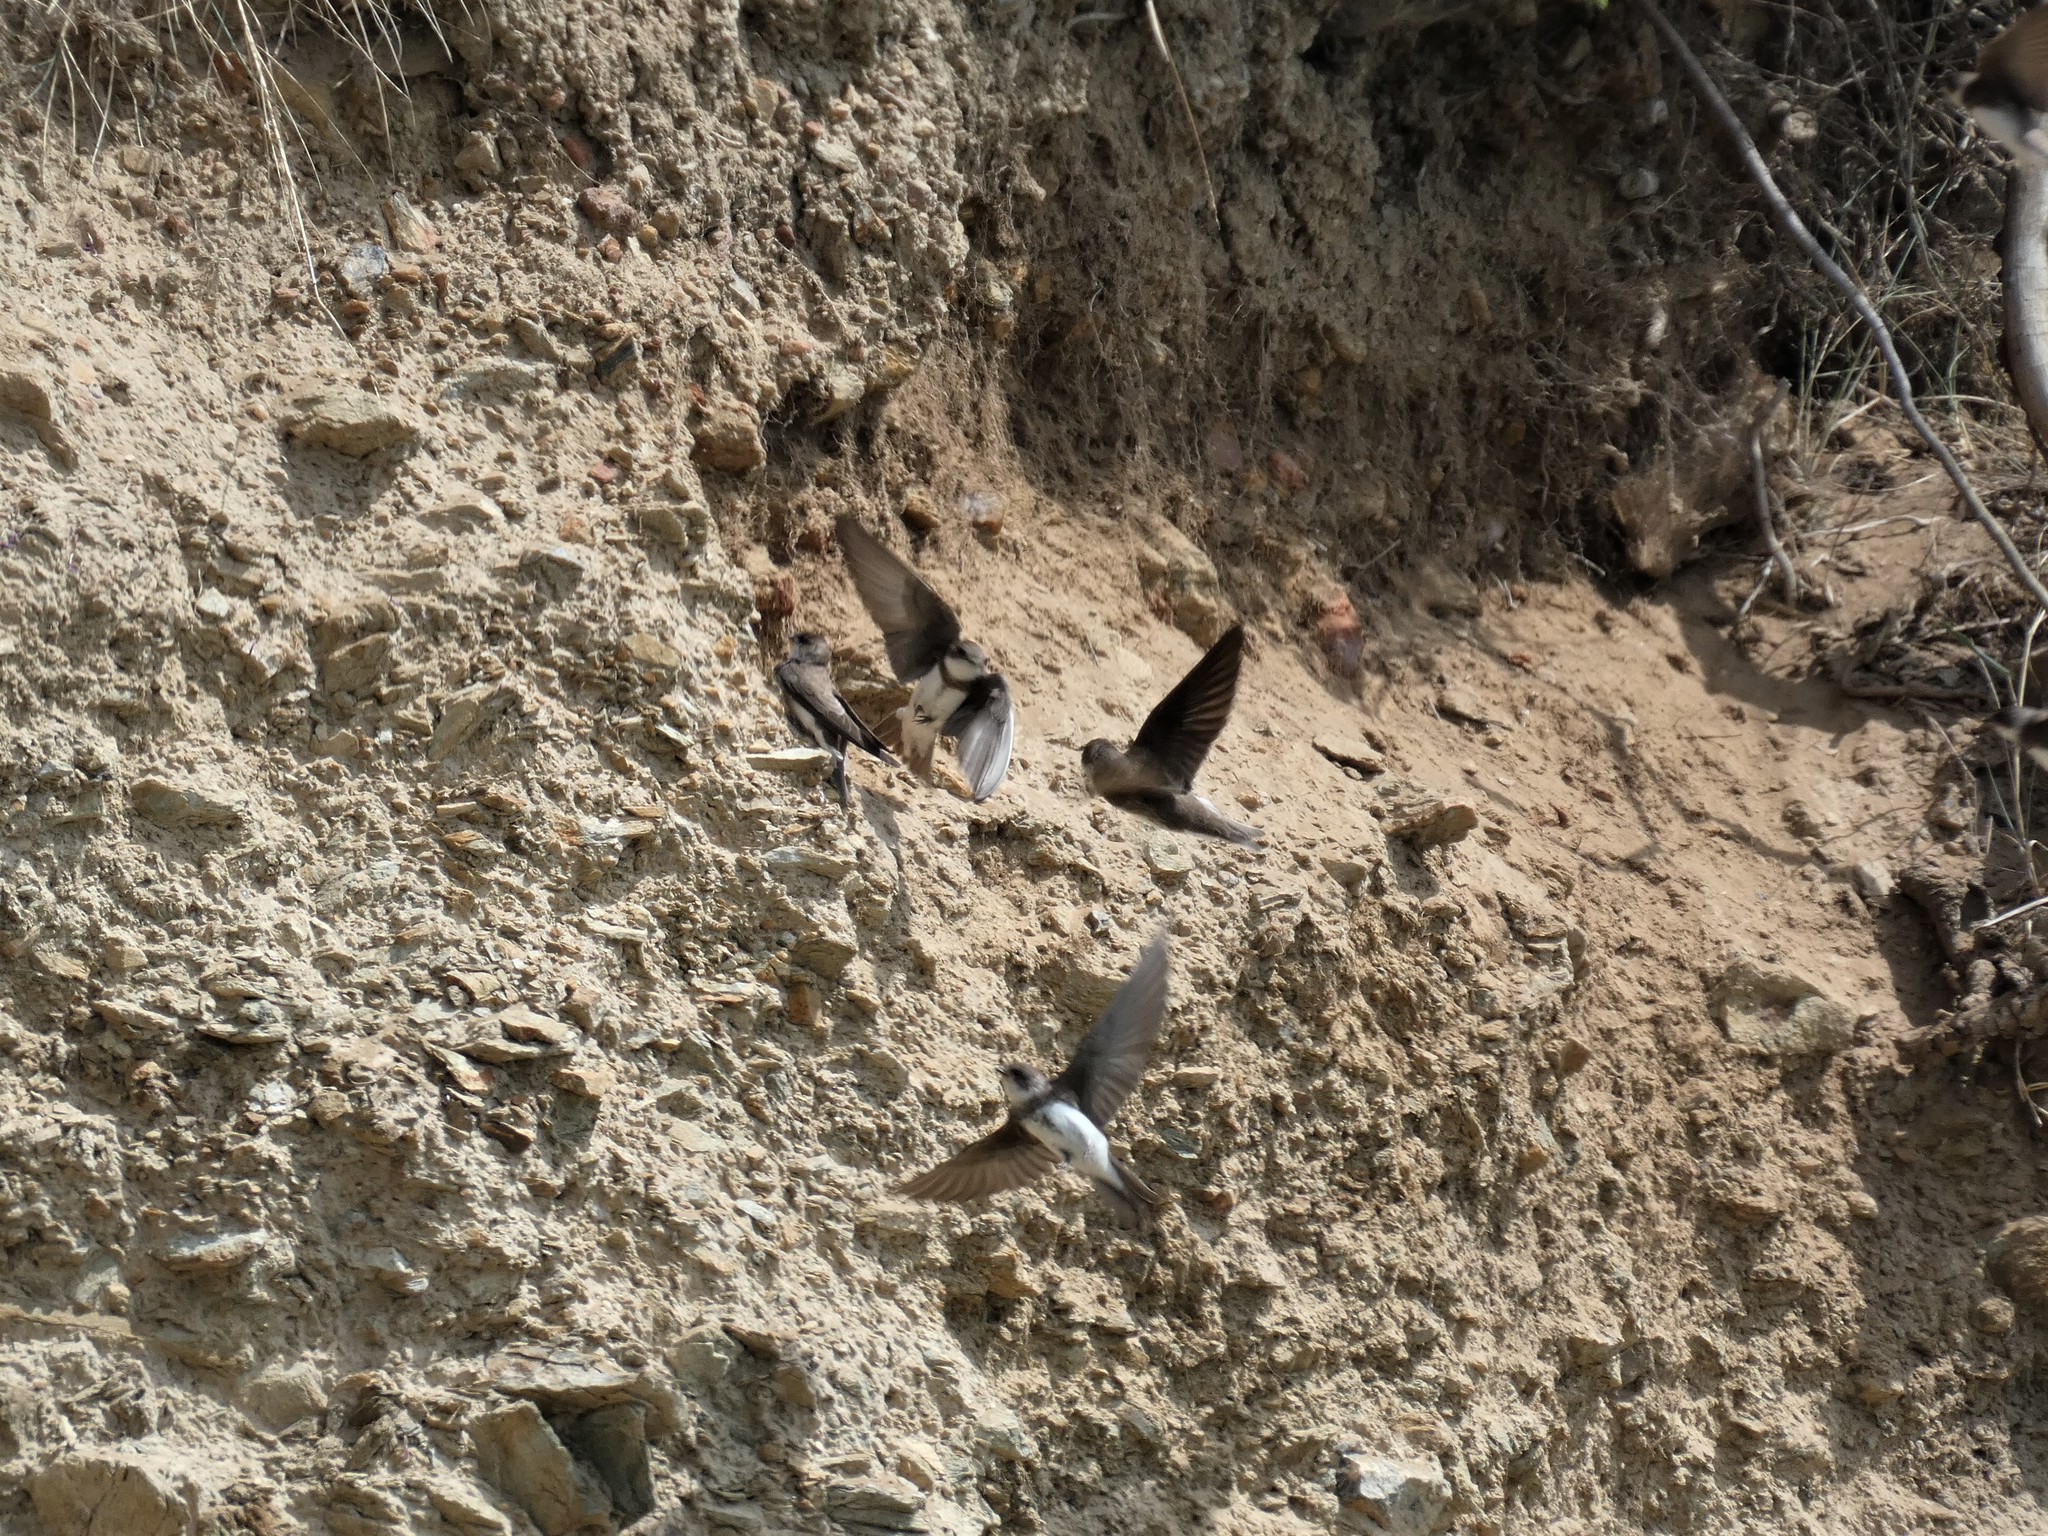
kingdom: Animalia
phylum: Chordata
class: Aves
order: Passeriformes
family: Hirundinidae
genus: Riparia
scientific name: Riparia riparia
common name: Sand martin
